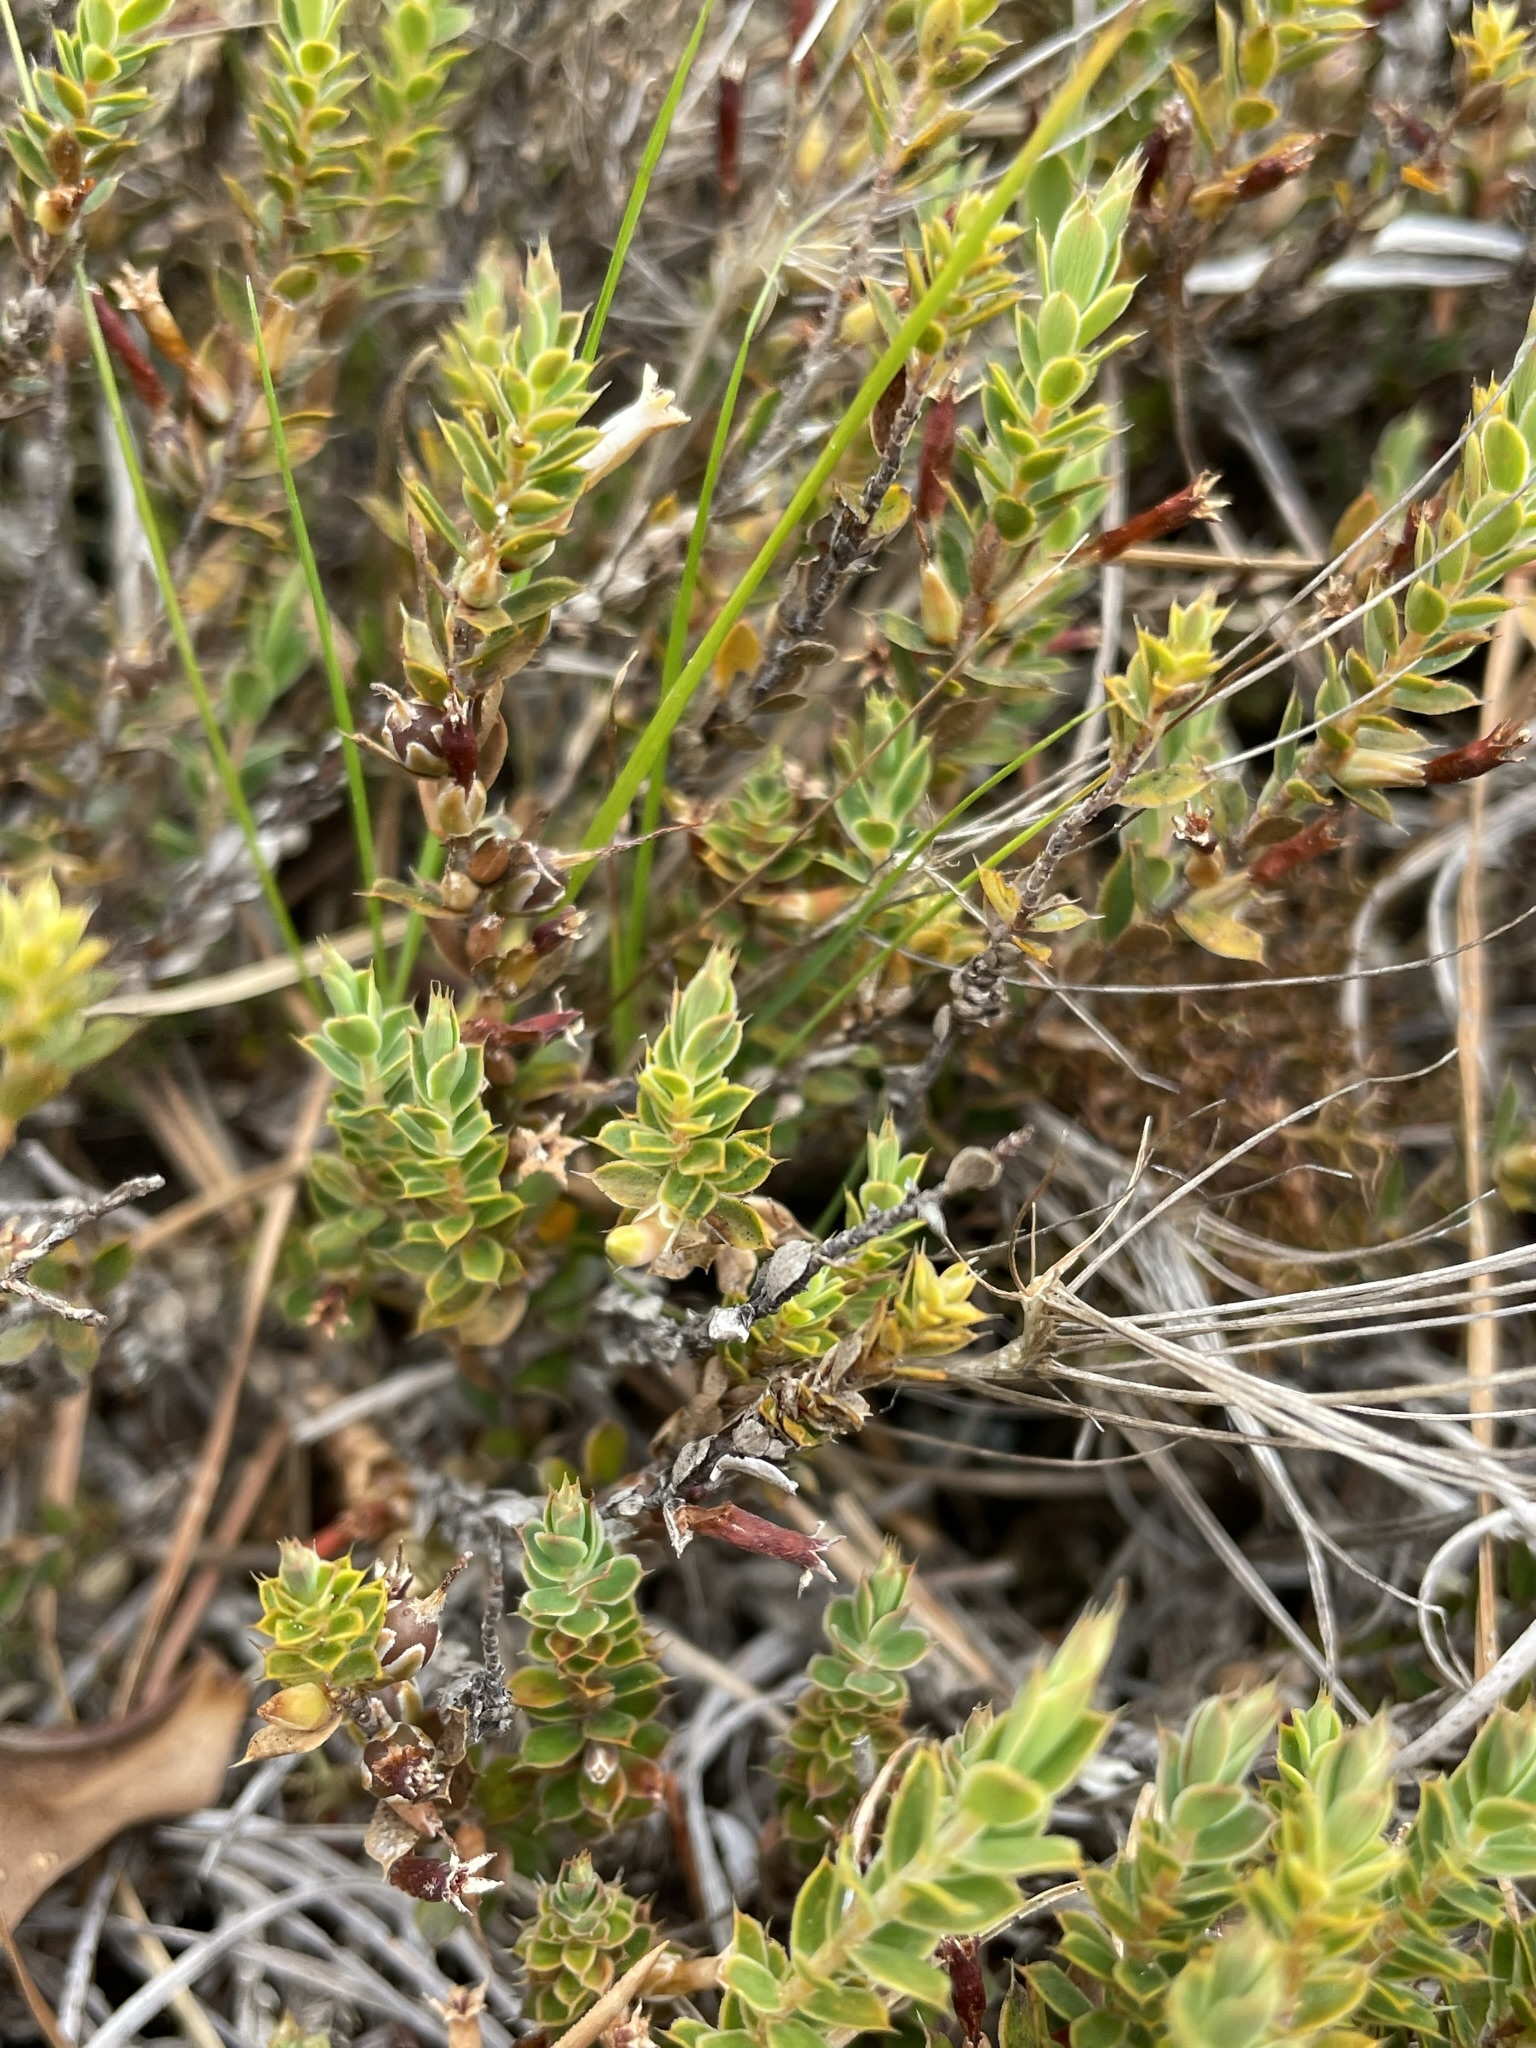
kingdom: Plantae
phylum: Tracheophyta
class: Magnoliopsida
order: Ericales
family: Ericaceae
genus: Styphelia
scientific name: Styphelia nesophila
